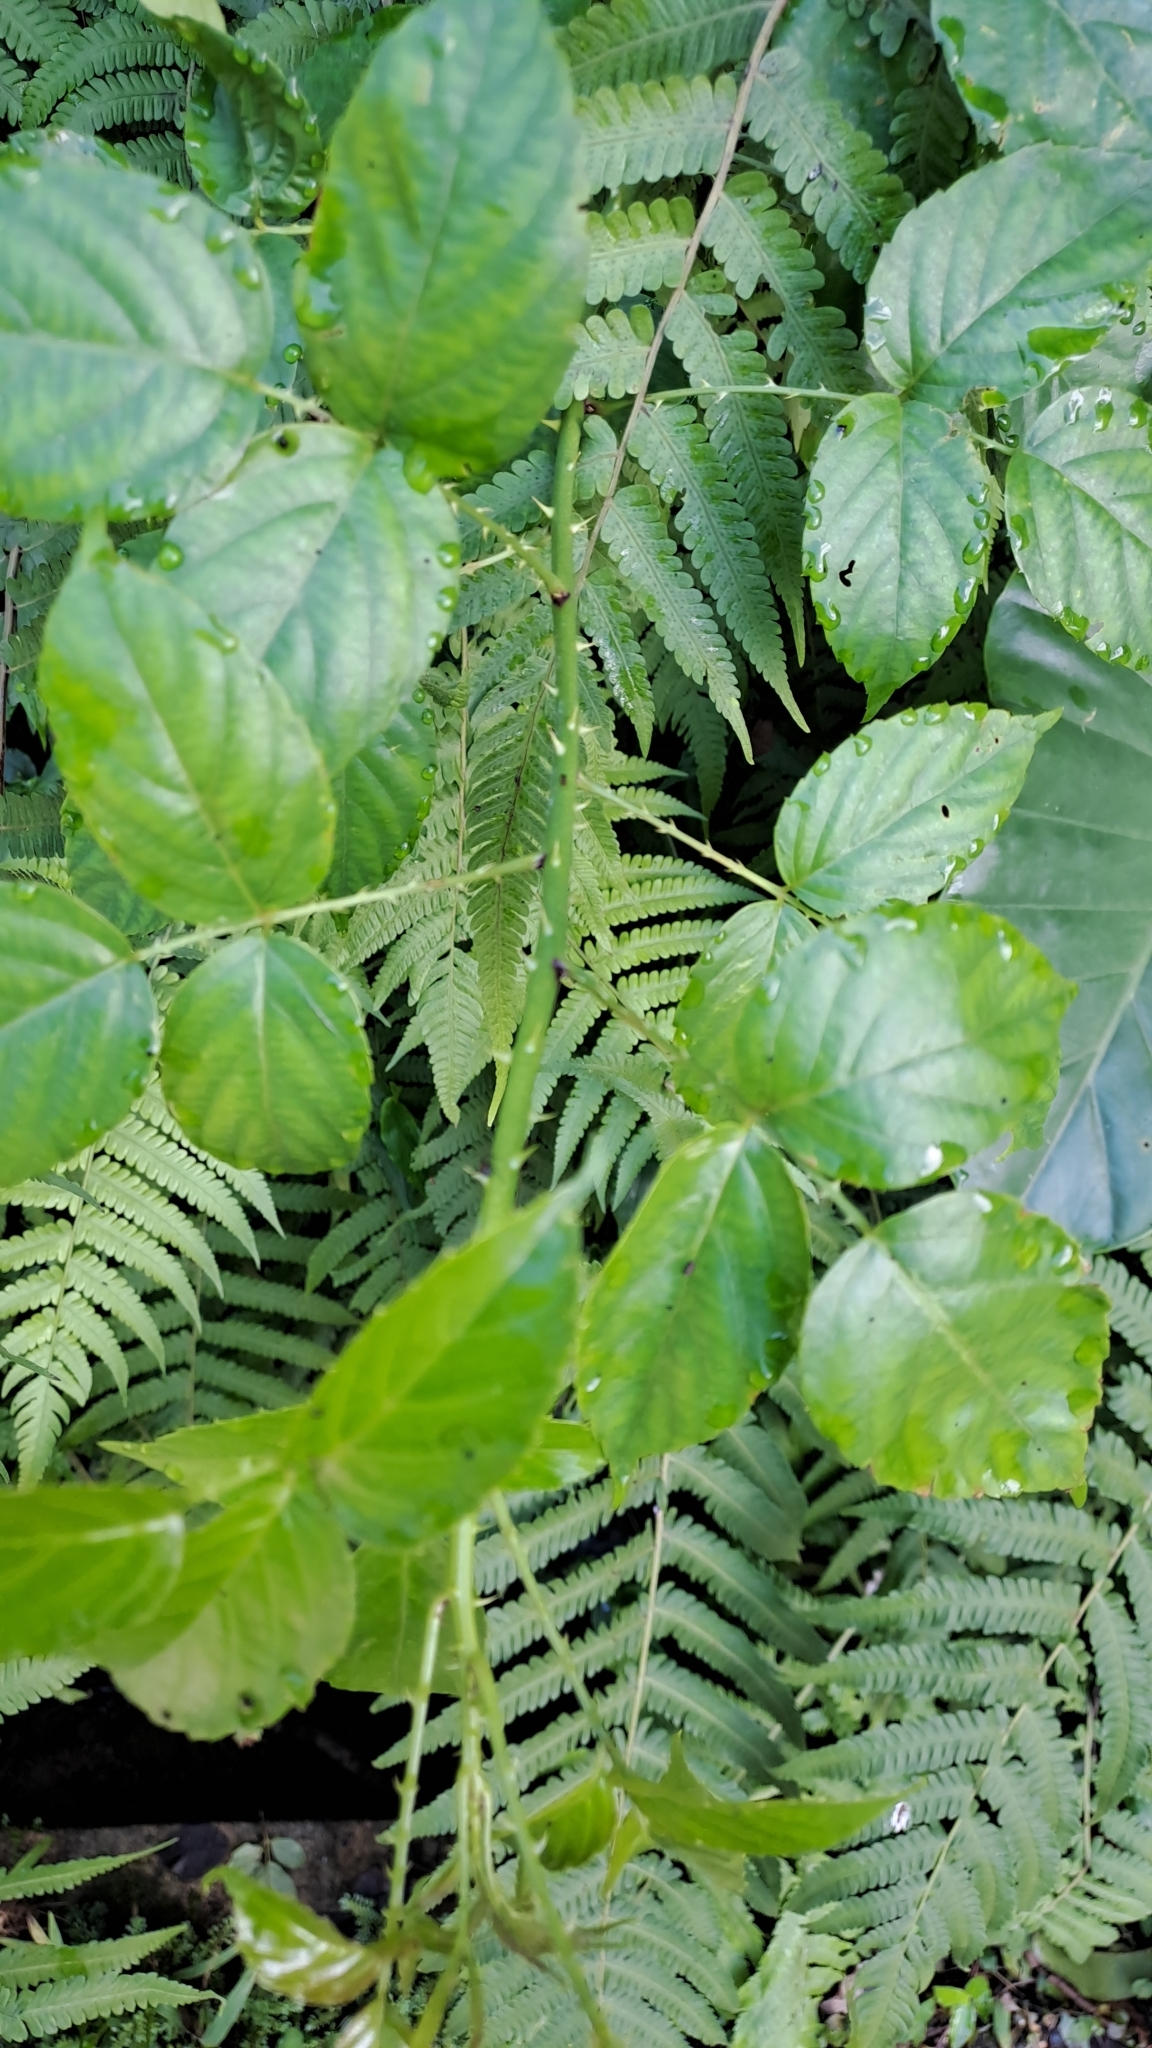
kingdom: Plantae
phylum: Tracheophyta
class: Magnoliopsida
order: Rosales
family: Rosaceae
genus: Rubus
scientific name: Rubus leucanthus
